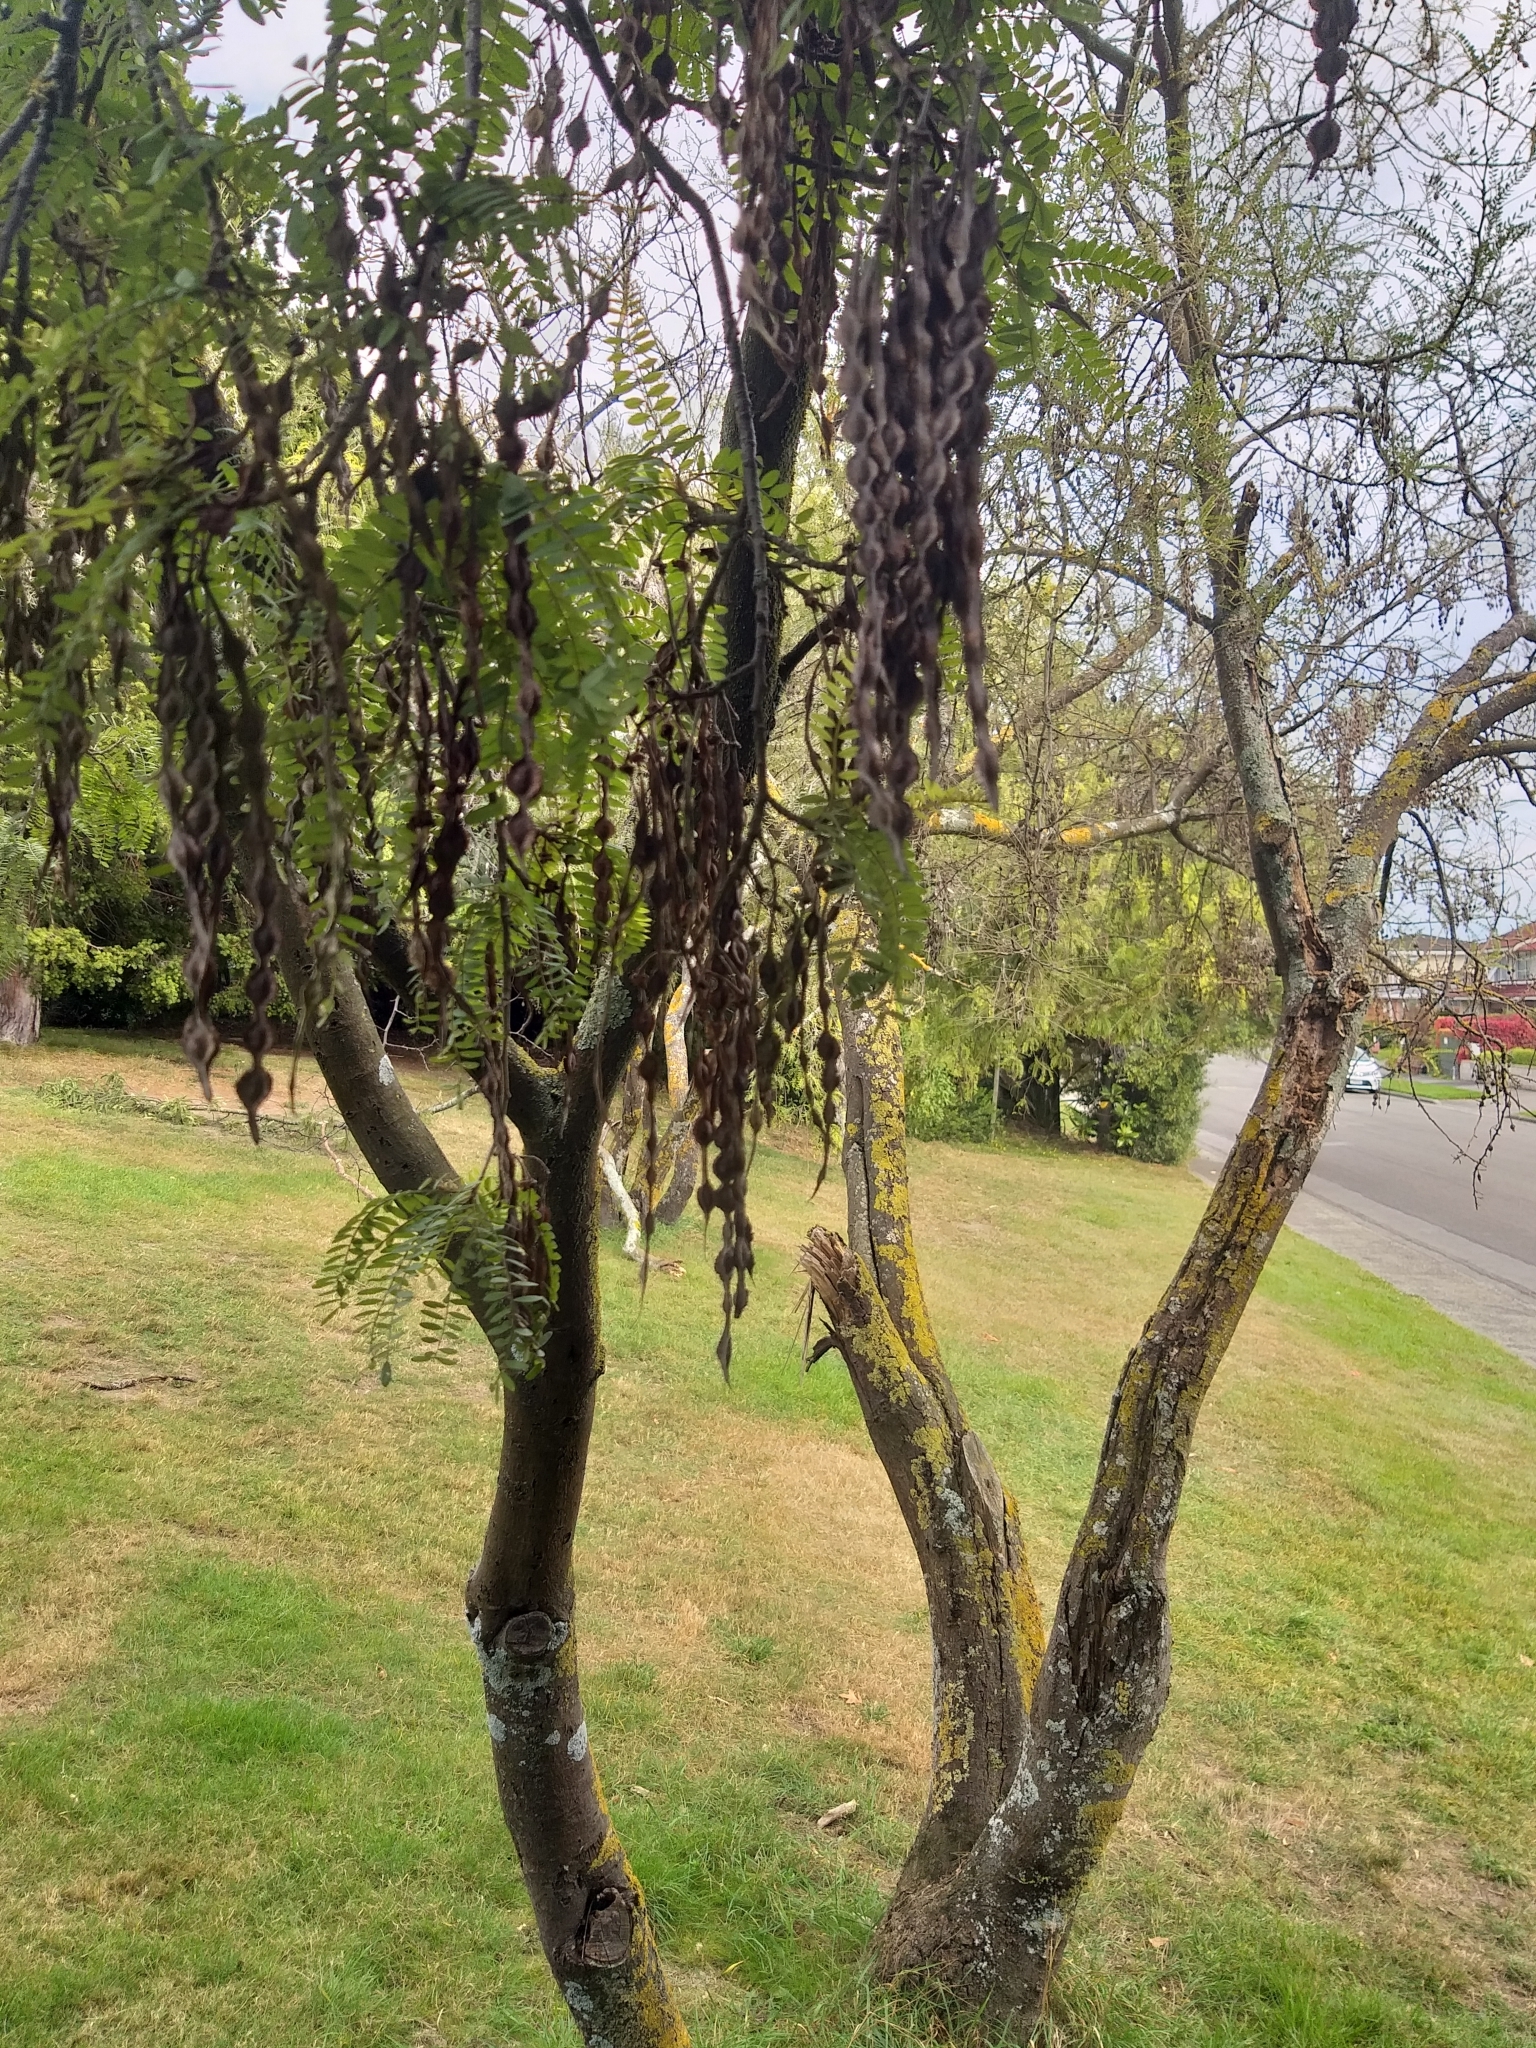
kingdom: Plantae
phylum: Tracheophyta
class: Magnoliopsida
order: Fabales
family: Fabaceae
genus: Sophora
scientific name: Sophora microphylla
